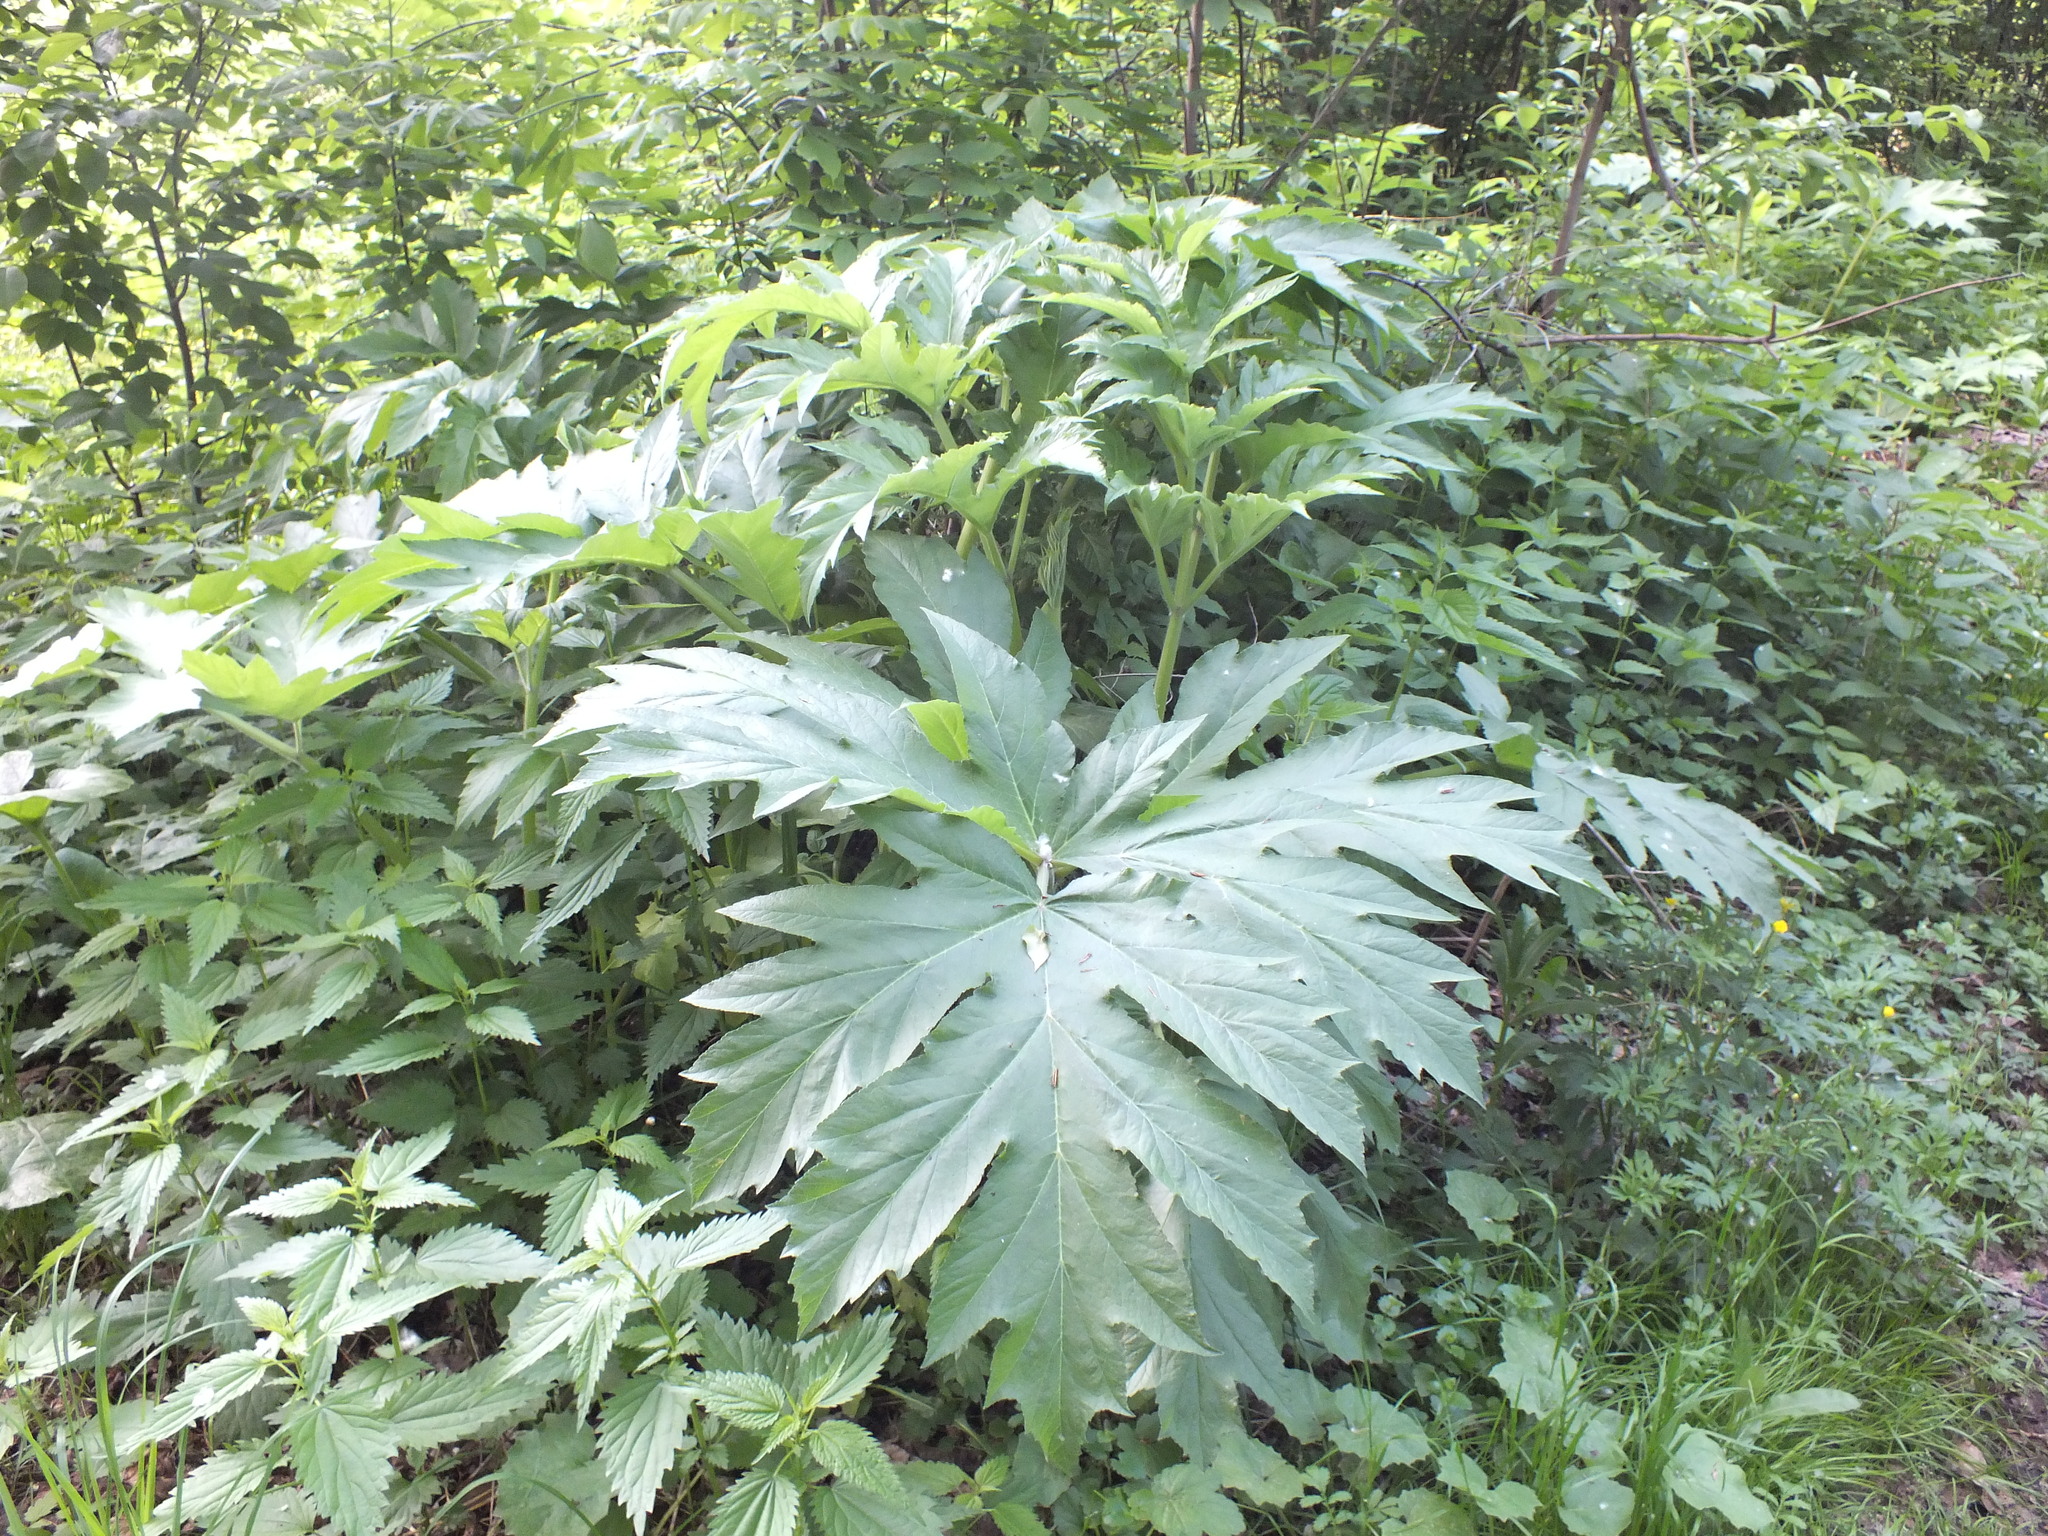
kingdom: Plantae
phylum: Tracheophyta
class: Magnoliopsida
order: Apiales
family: Apiaceae
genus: Heracleum
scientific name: Heracleum dissectum
